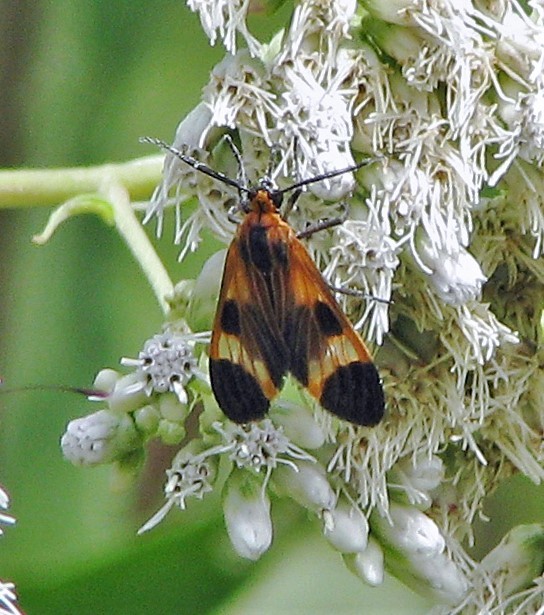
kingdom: Animalia
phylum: Arthropoda
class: Insecta
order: Lepidoptera
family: Erebidae
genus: Dycladia
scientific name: Dycladia lucetius
